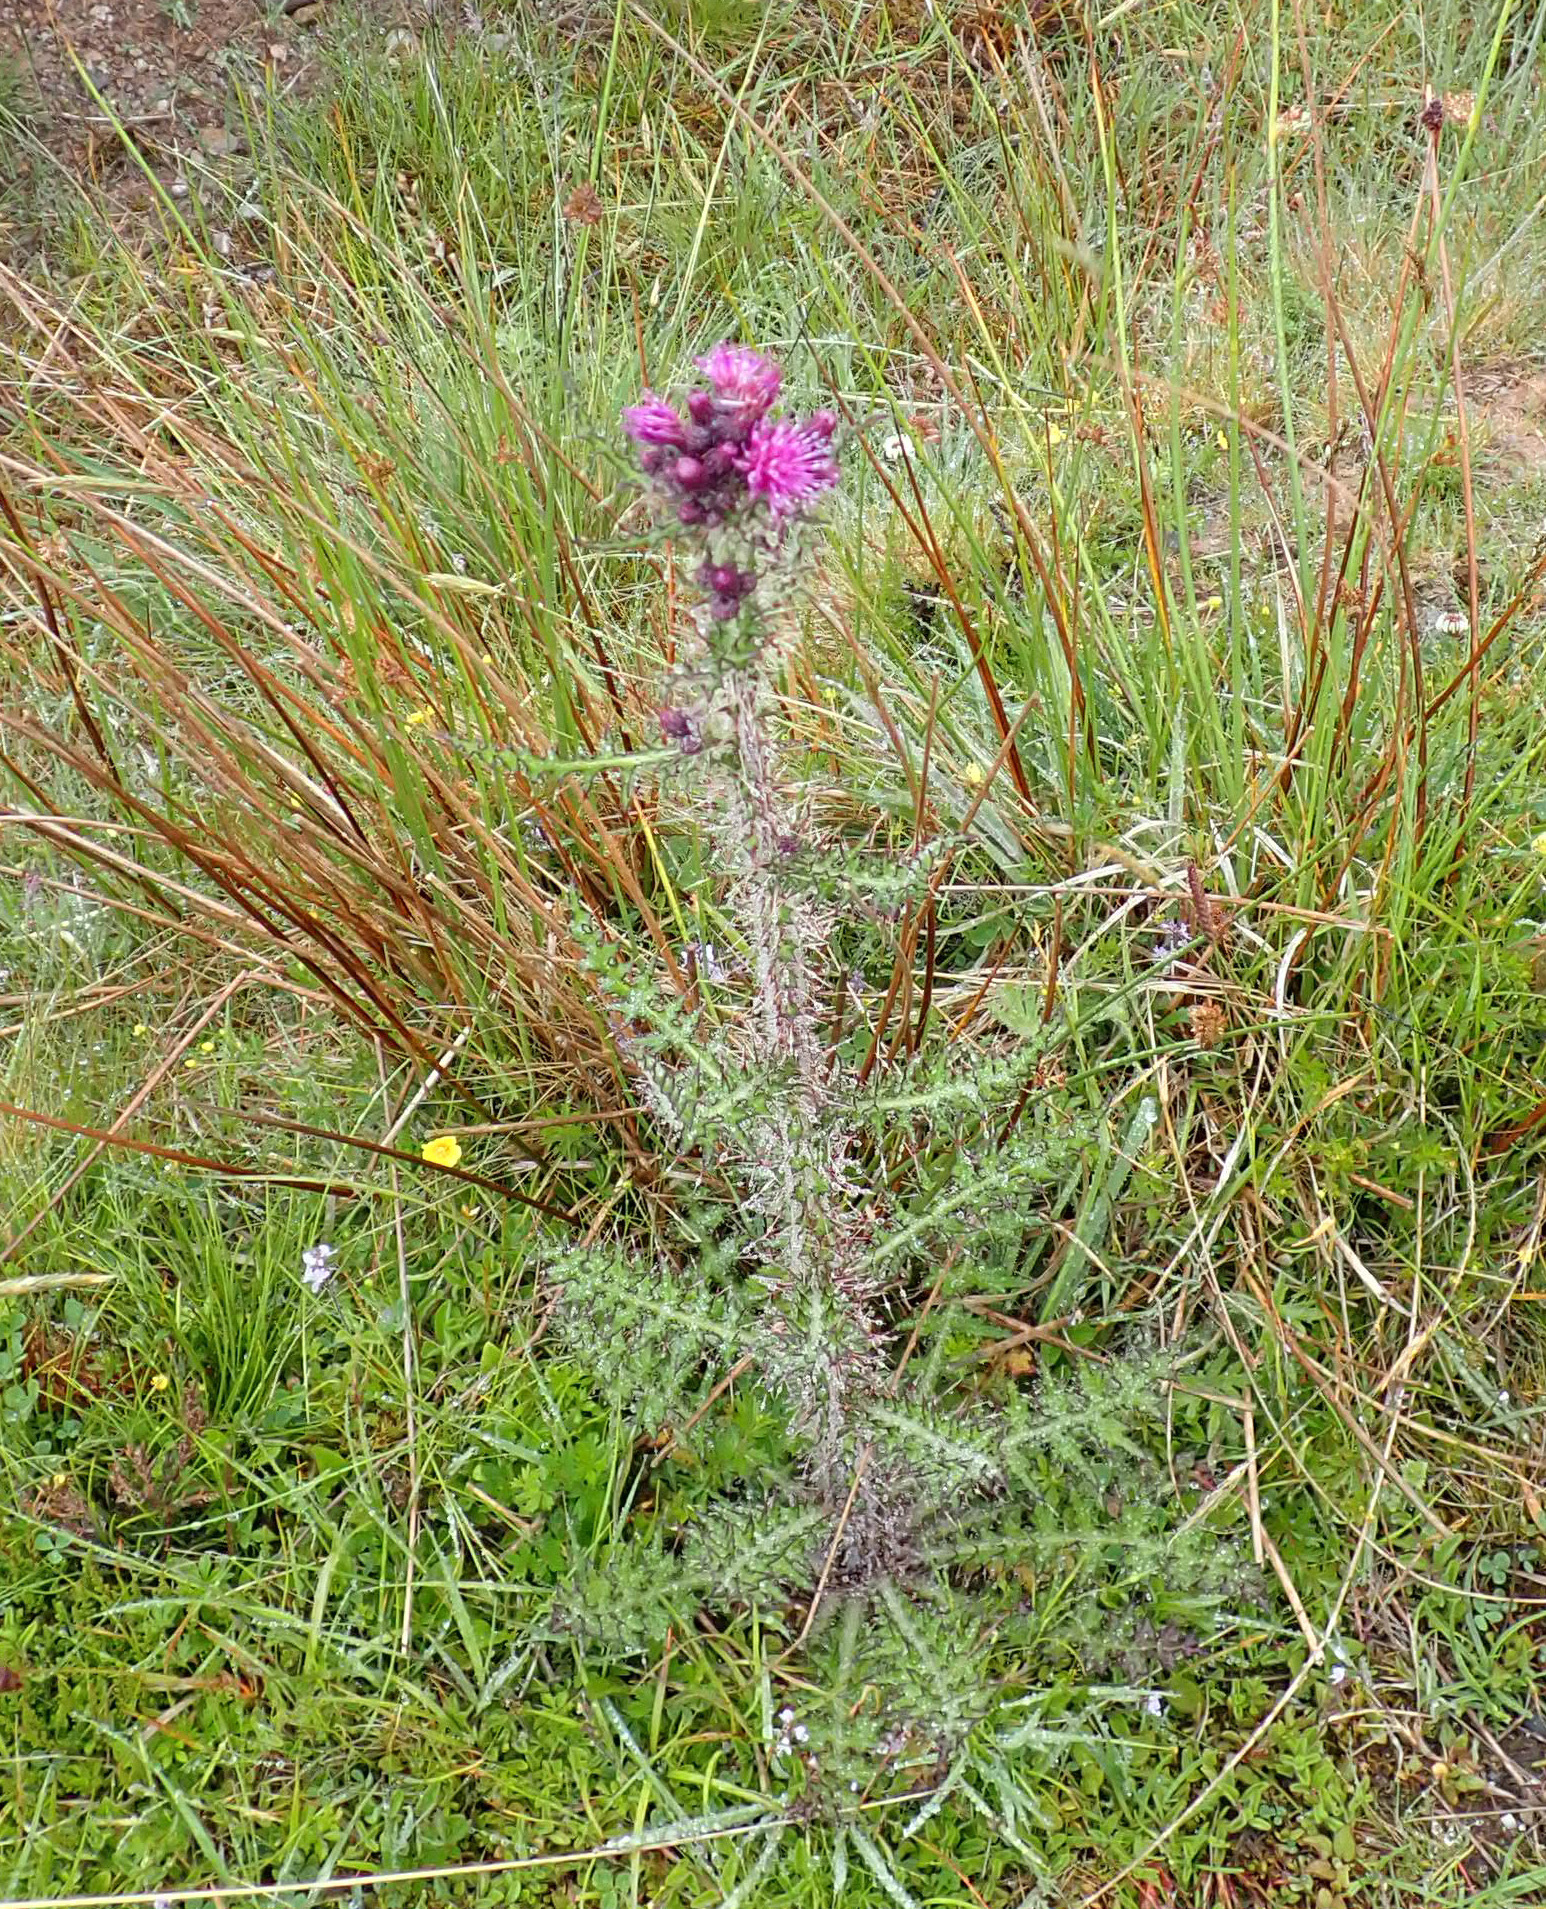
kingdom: Plantae
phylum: Tracheophyta
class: Magnoliopsida
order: Asterales
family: Asteraceae
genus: Cirsium
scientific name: Cirsium palustre
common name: Marsh thistle
